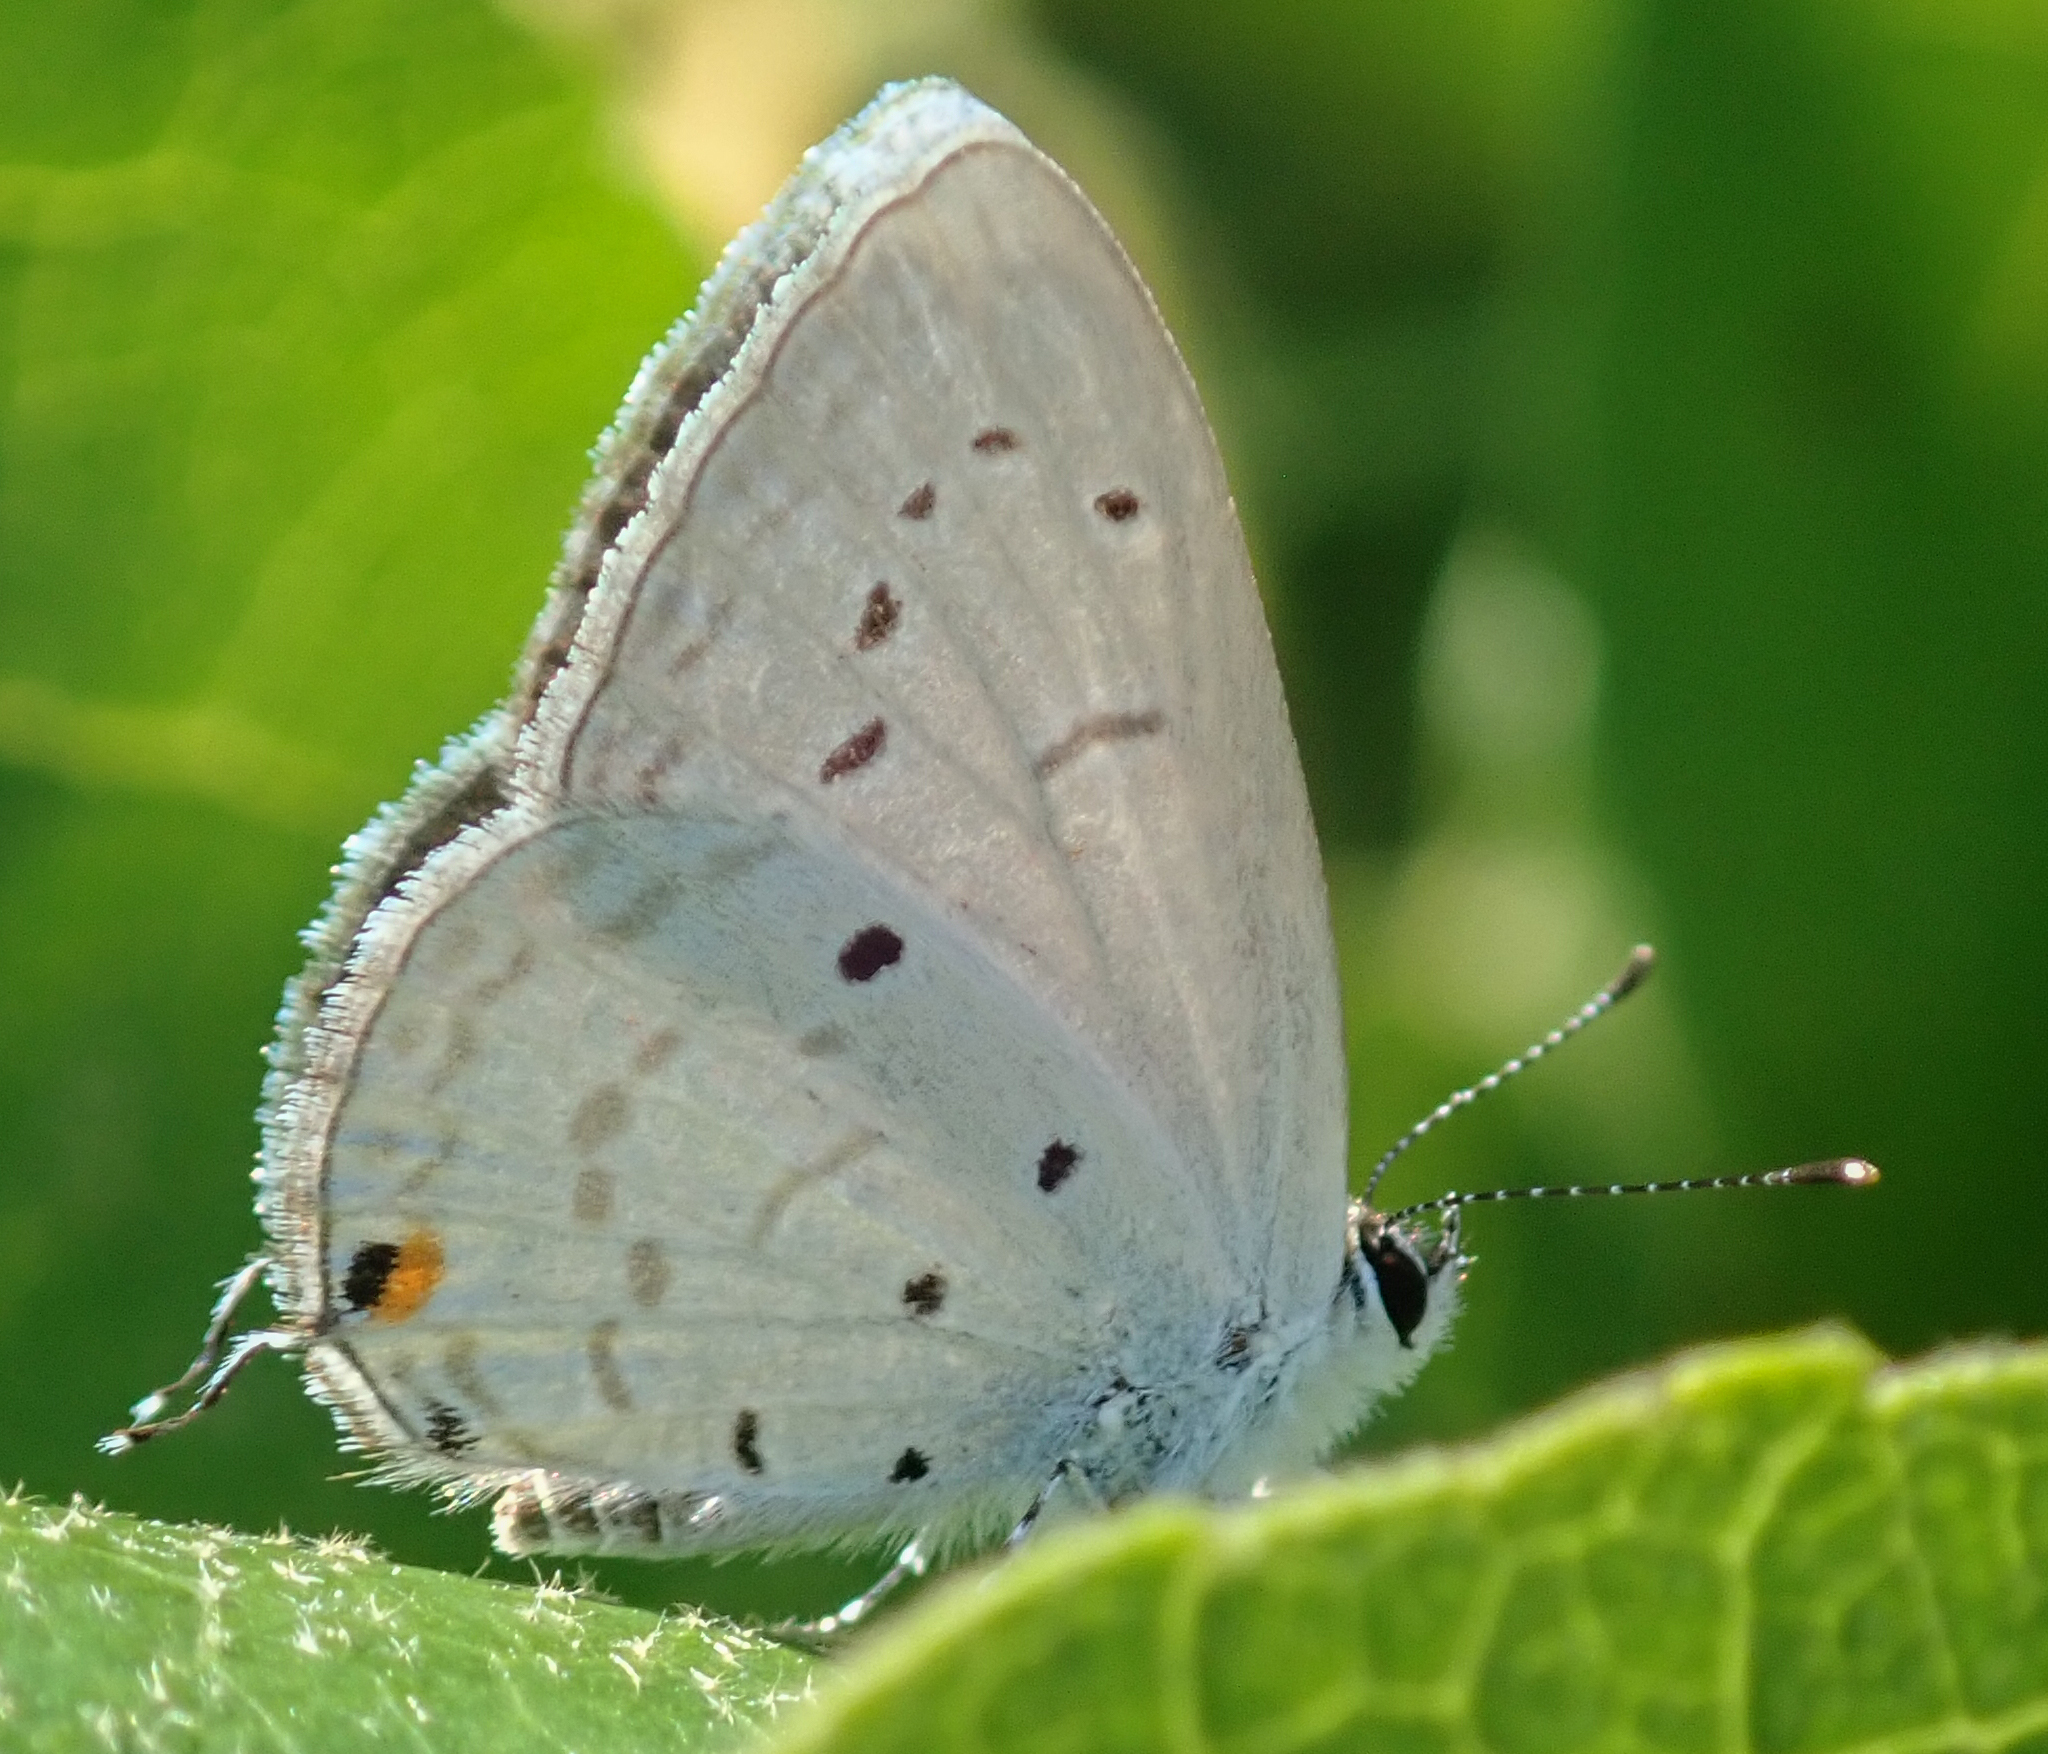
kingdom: Animalia
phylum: Arthropoda
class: Insecta
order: Lepidoptera
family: Lycaenidae
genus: Eicochrysops
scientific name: Eicochrysops hippocrates
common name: White-tipped blue
